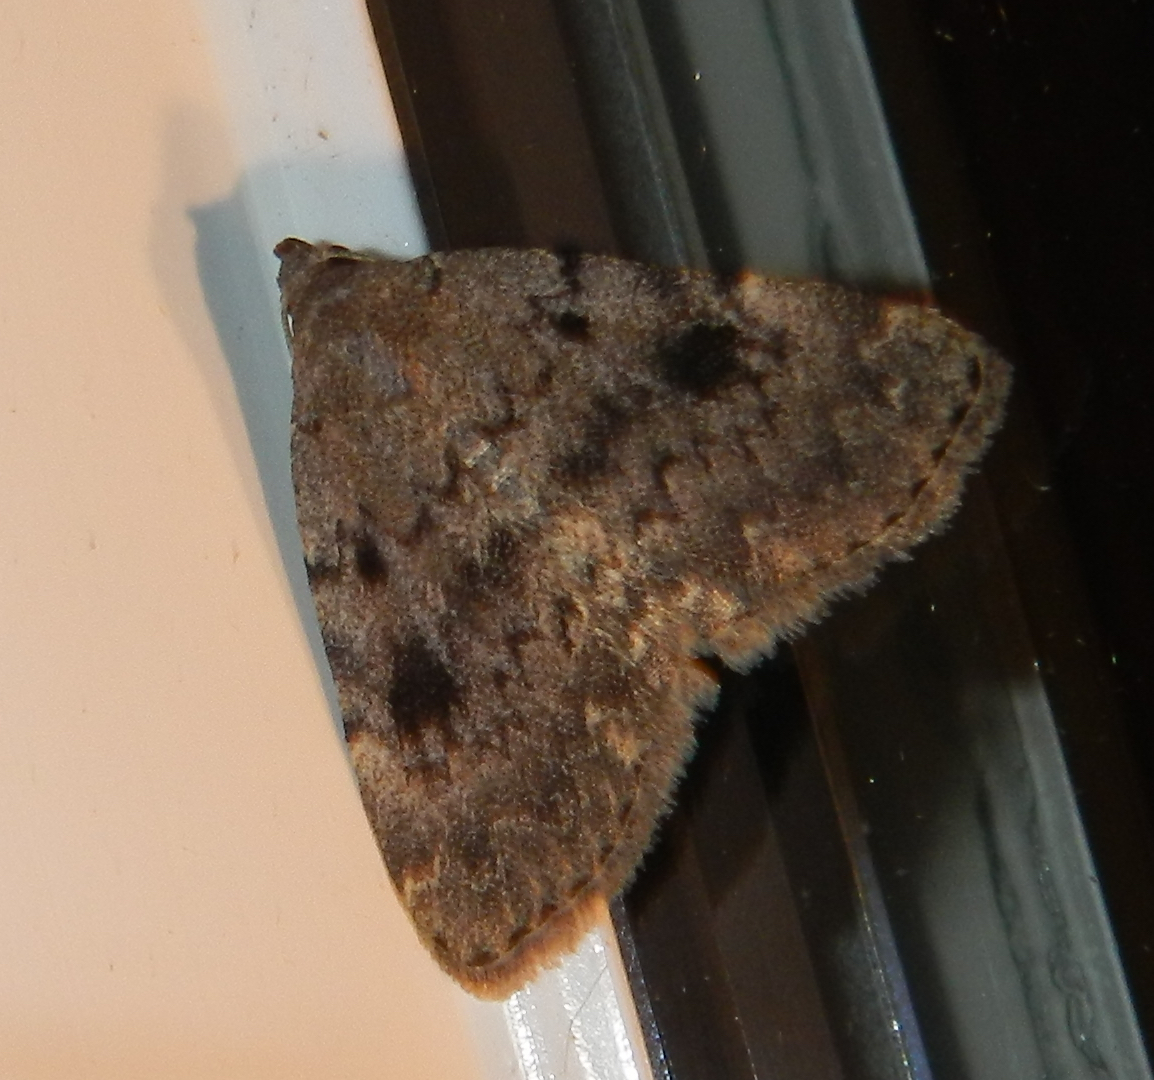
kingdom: Animalia
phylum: Arthropoda
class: Insecta
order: Lepidoptera
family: Erebidae
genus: Idia
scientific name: Idia aemula
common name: Common idia moth
